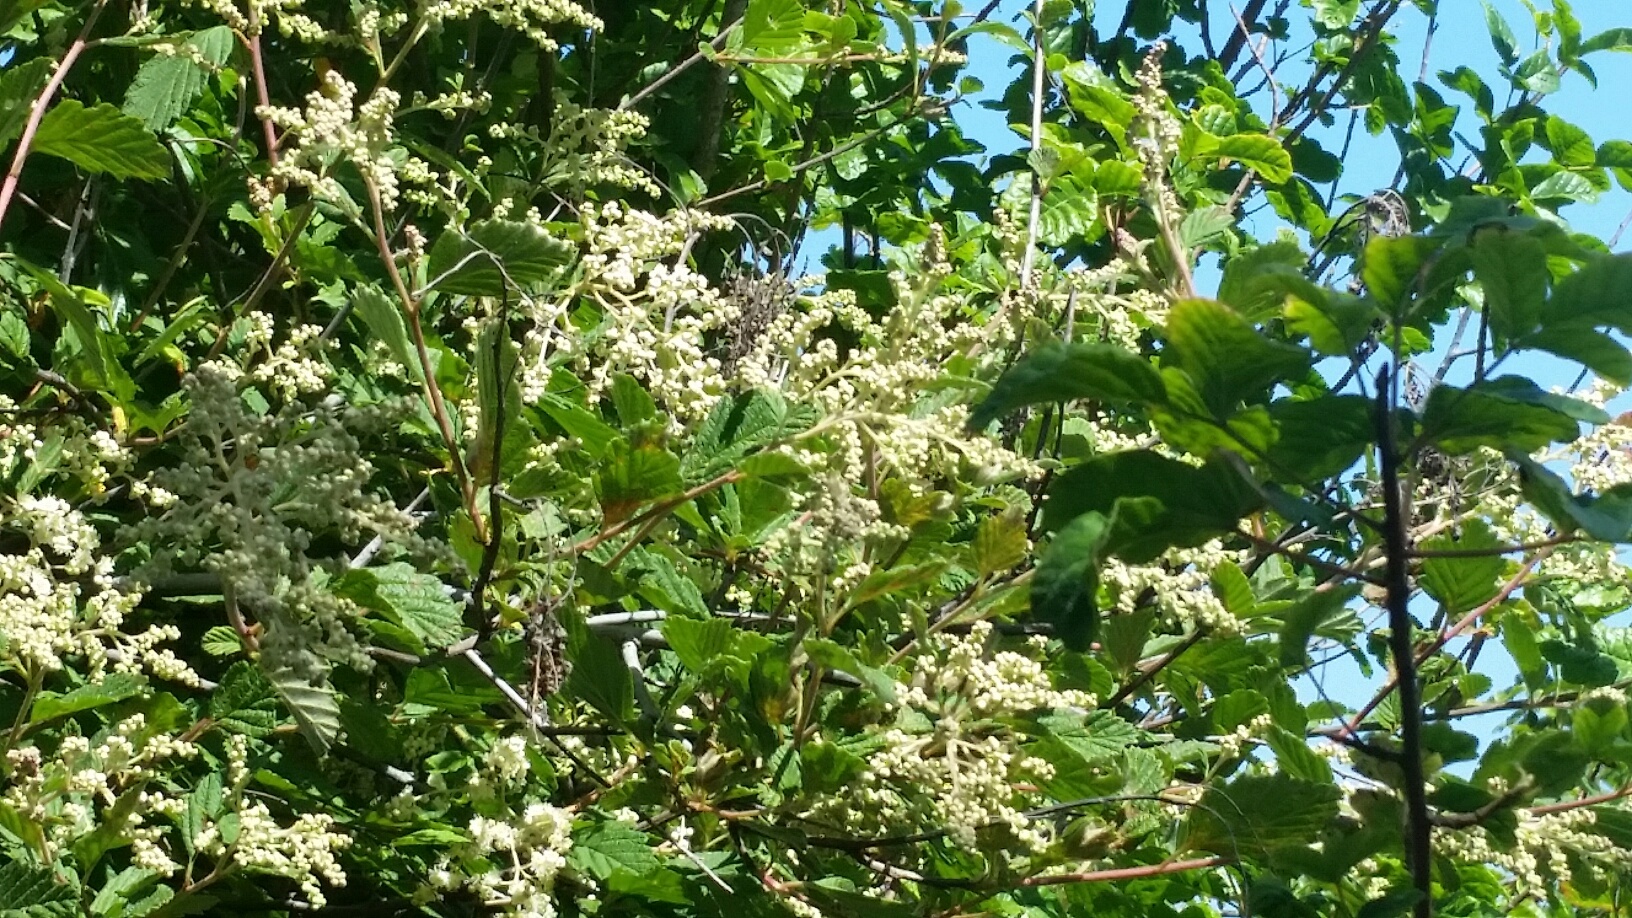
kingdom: Plantae
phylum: Tracheophyta
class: Magnoliopsida
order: Rosales
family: Rosaceae
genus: Holodiscus
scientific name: Holodiscus discolor
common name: Oceanspray
